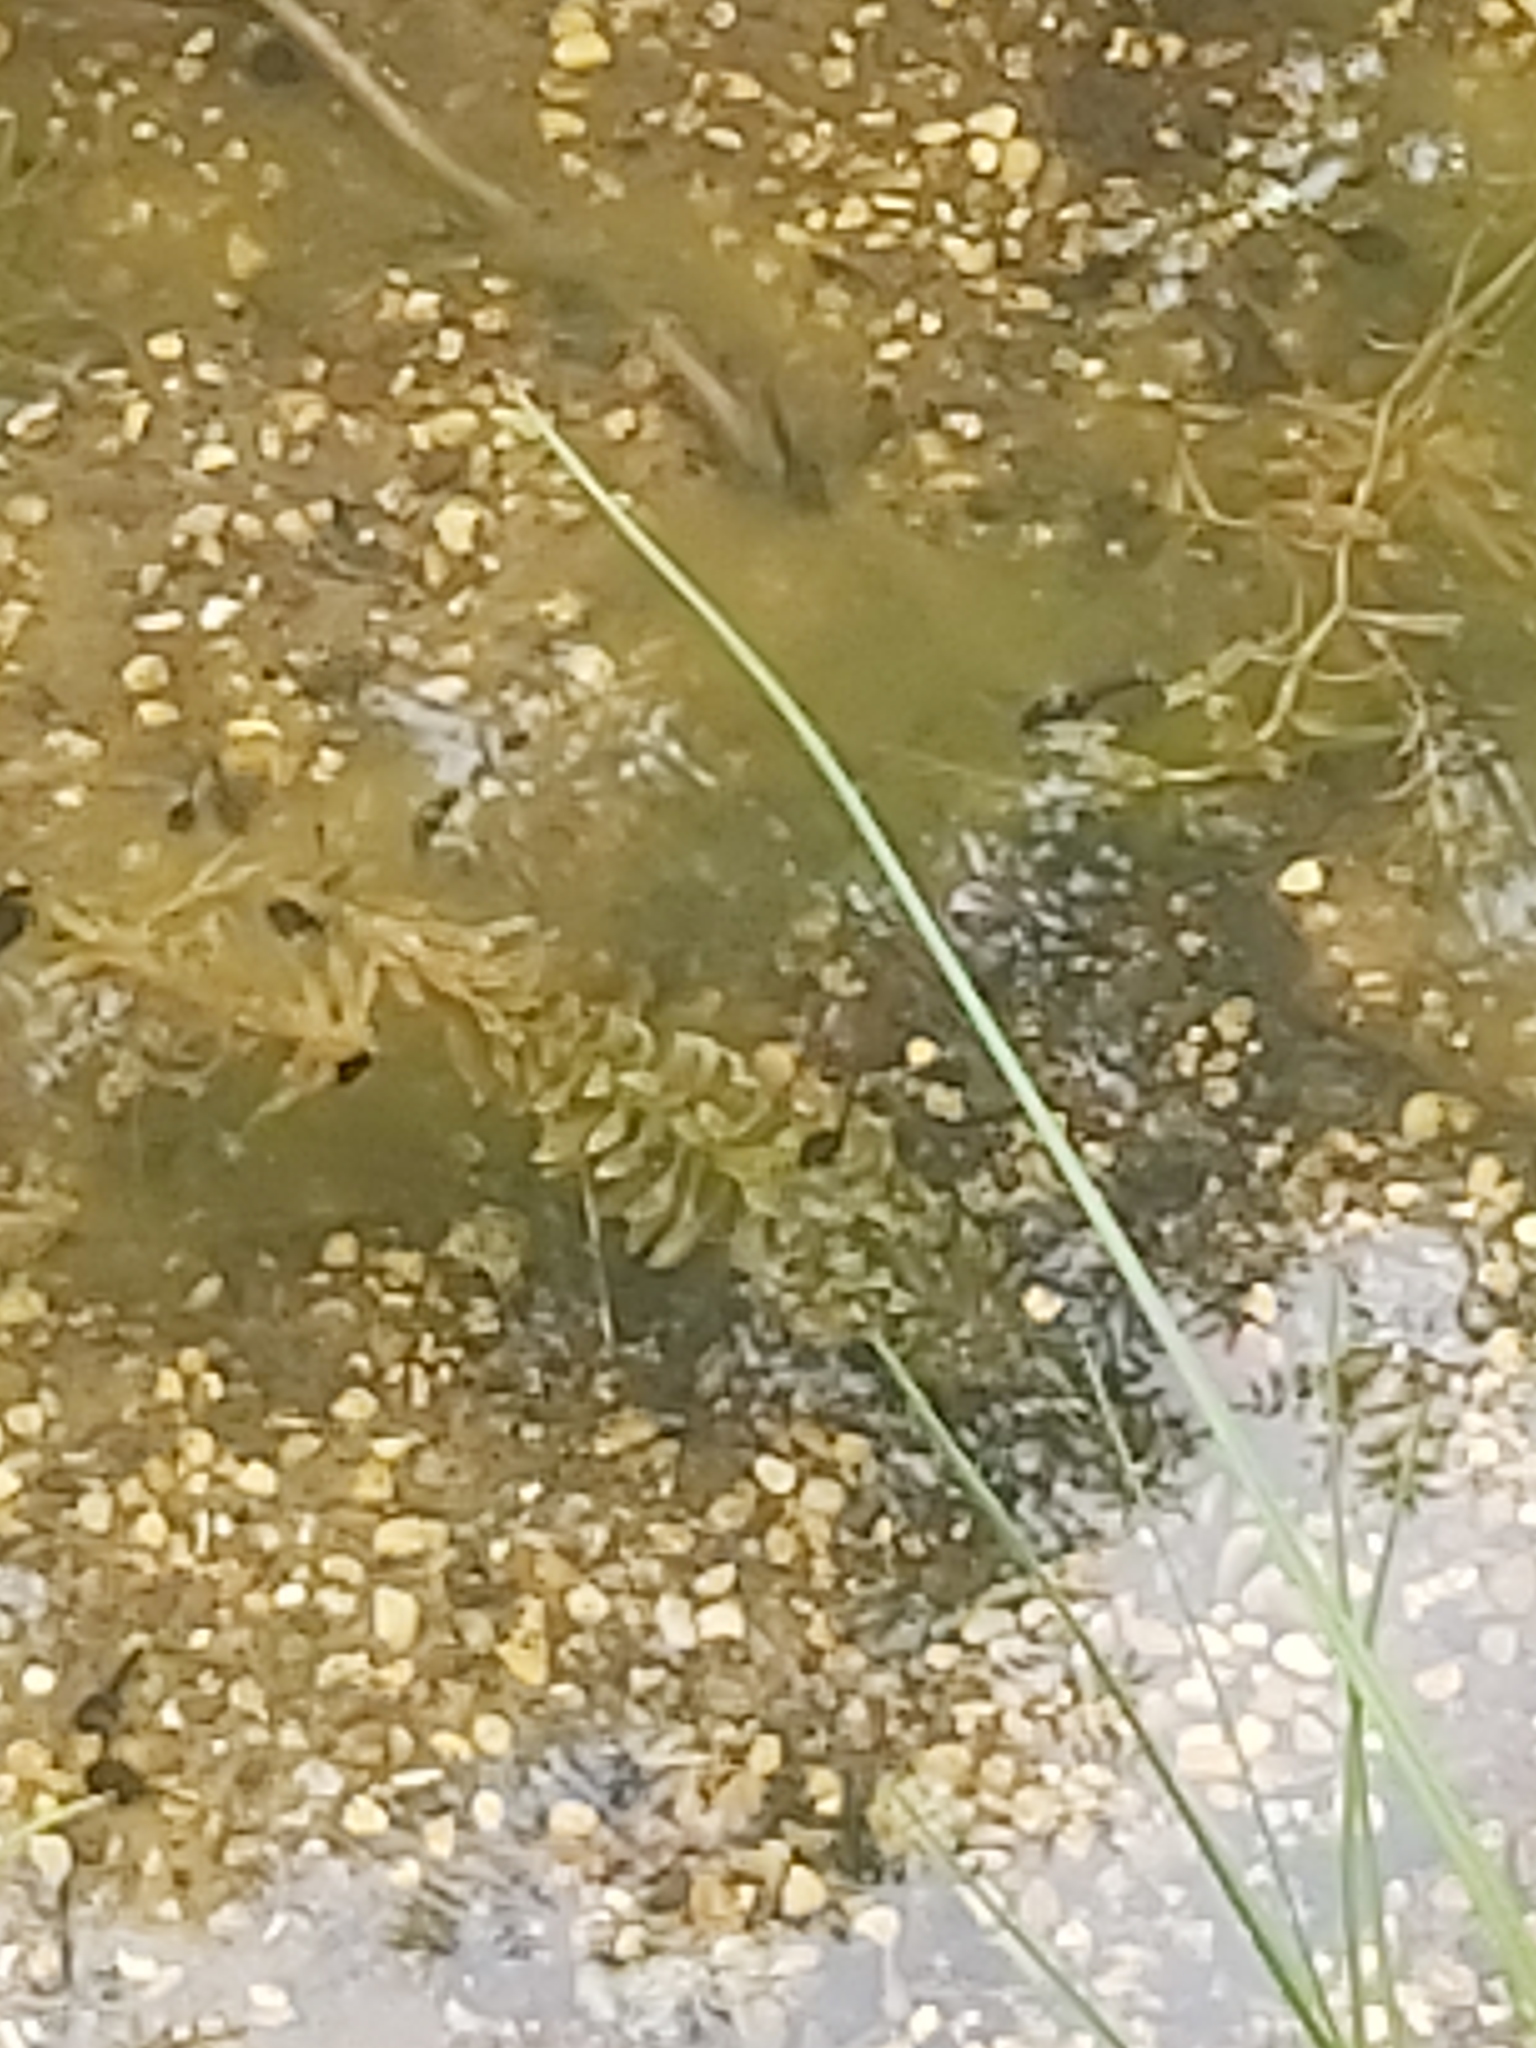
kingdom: Plantae
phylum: Tracheophyta
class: Liliopsida
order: Alismatales
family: Hydrocharitaceae
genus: Elodea
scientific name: Elodea canadensis
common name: Canadian waterweed
